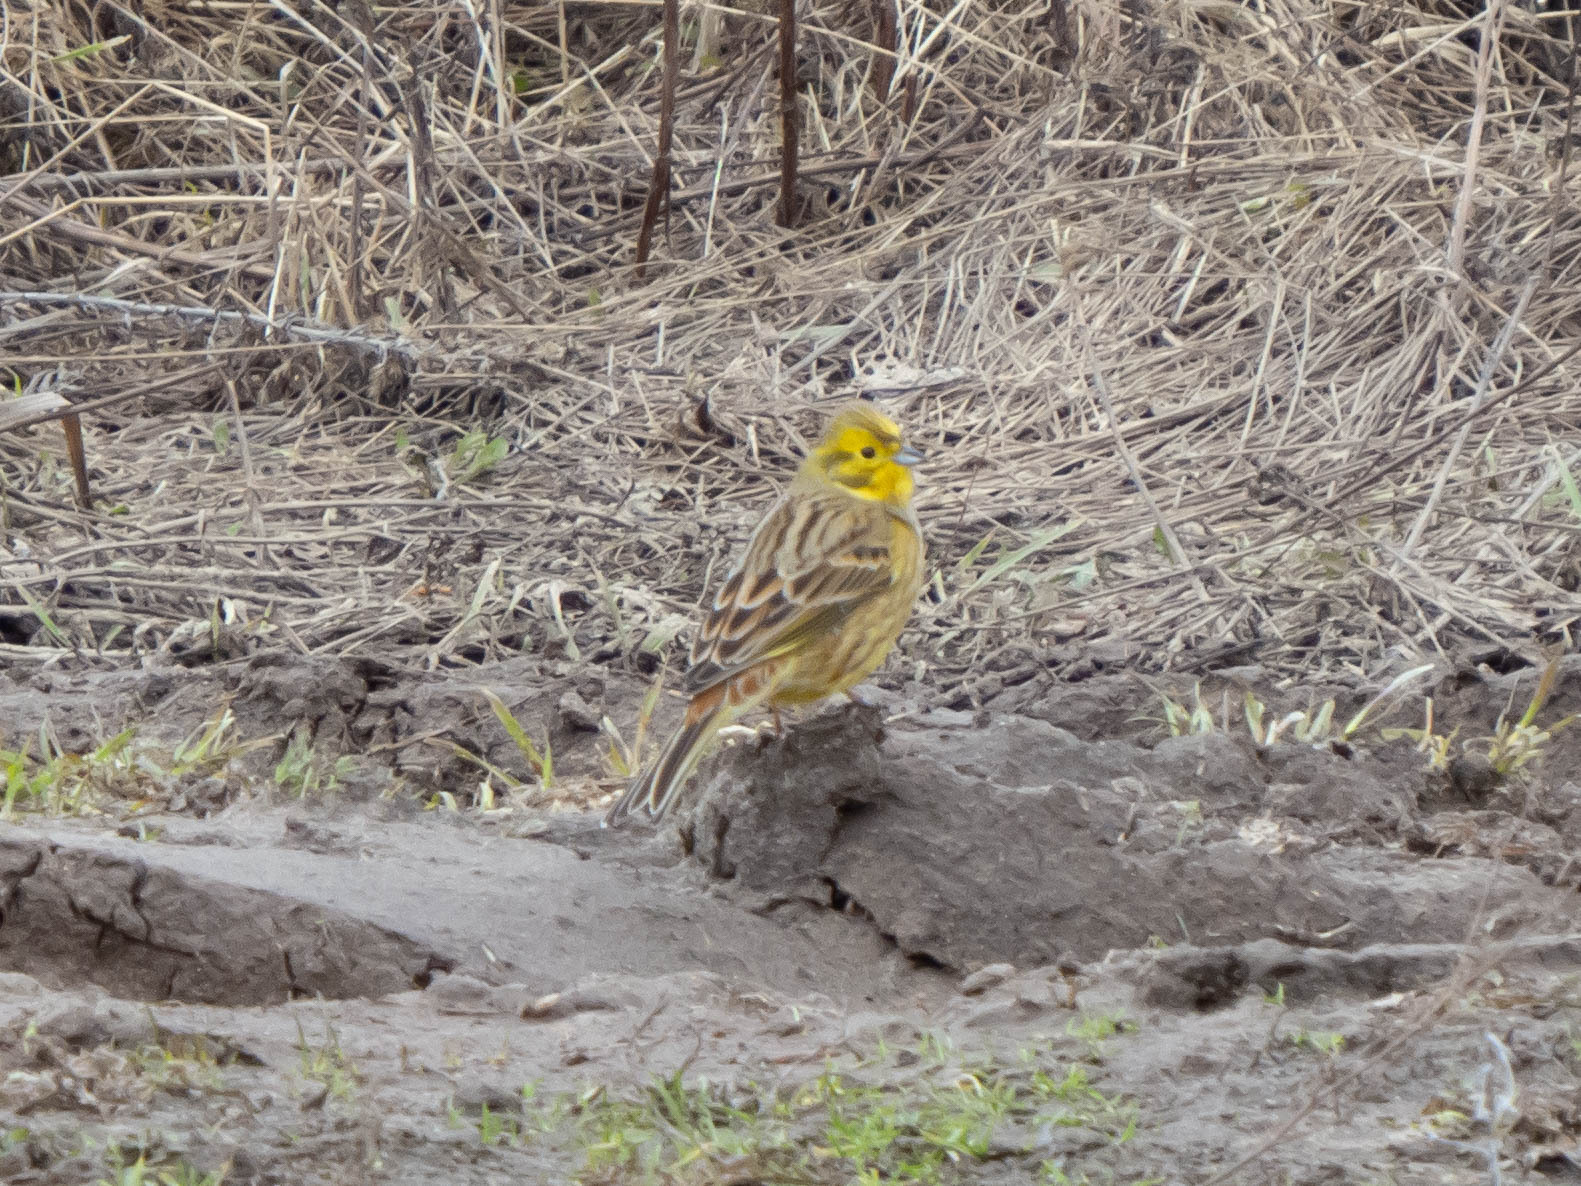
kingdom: Animalia
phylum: Chordata
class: Aves
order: Passeriformes
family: Emberizidae
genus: Emberiza
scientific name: Emberiza citrinella
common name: Yellowhammer
